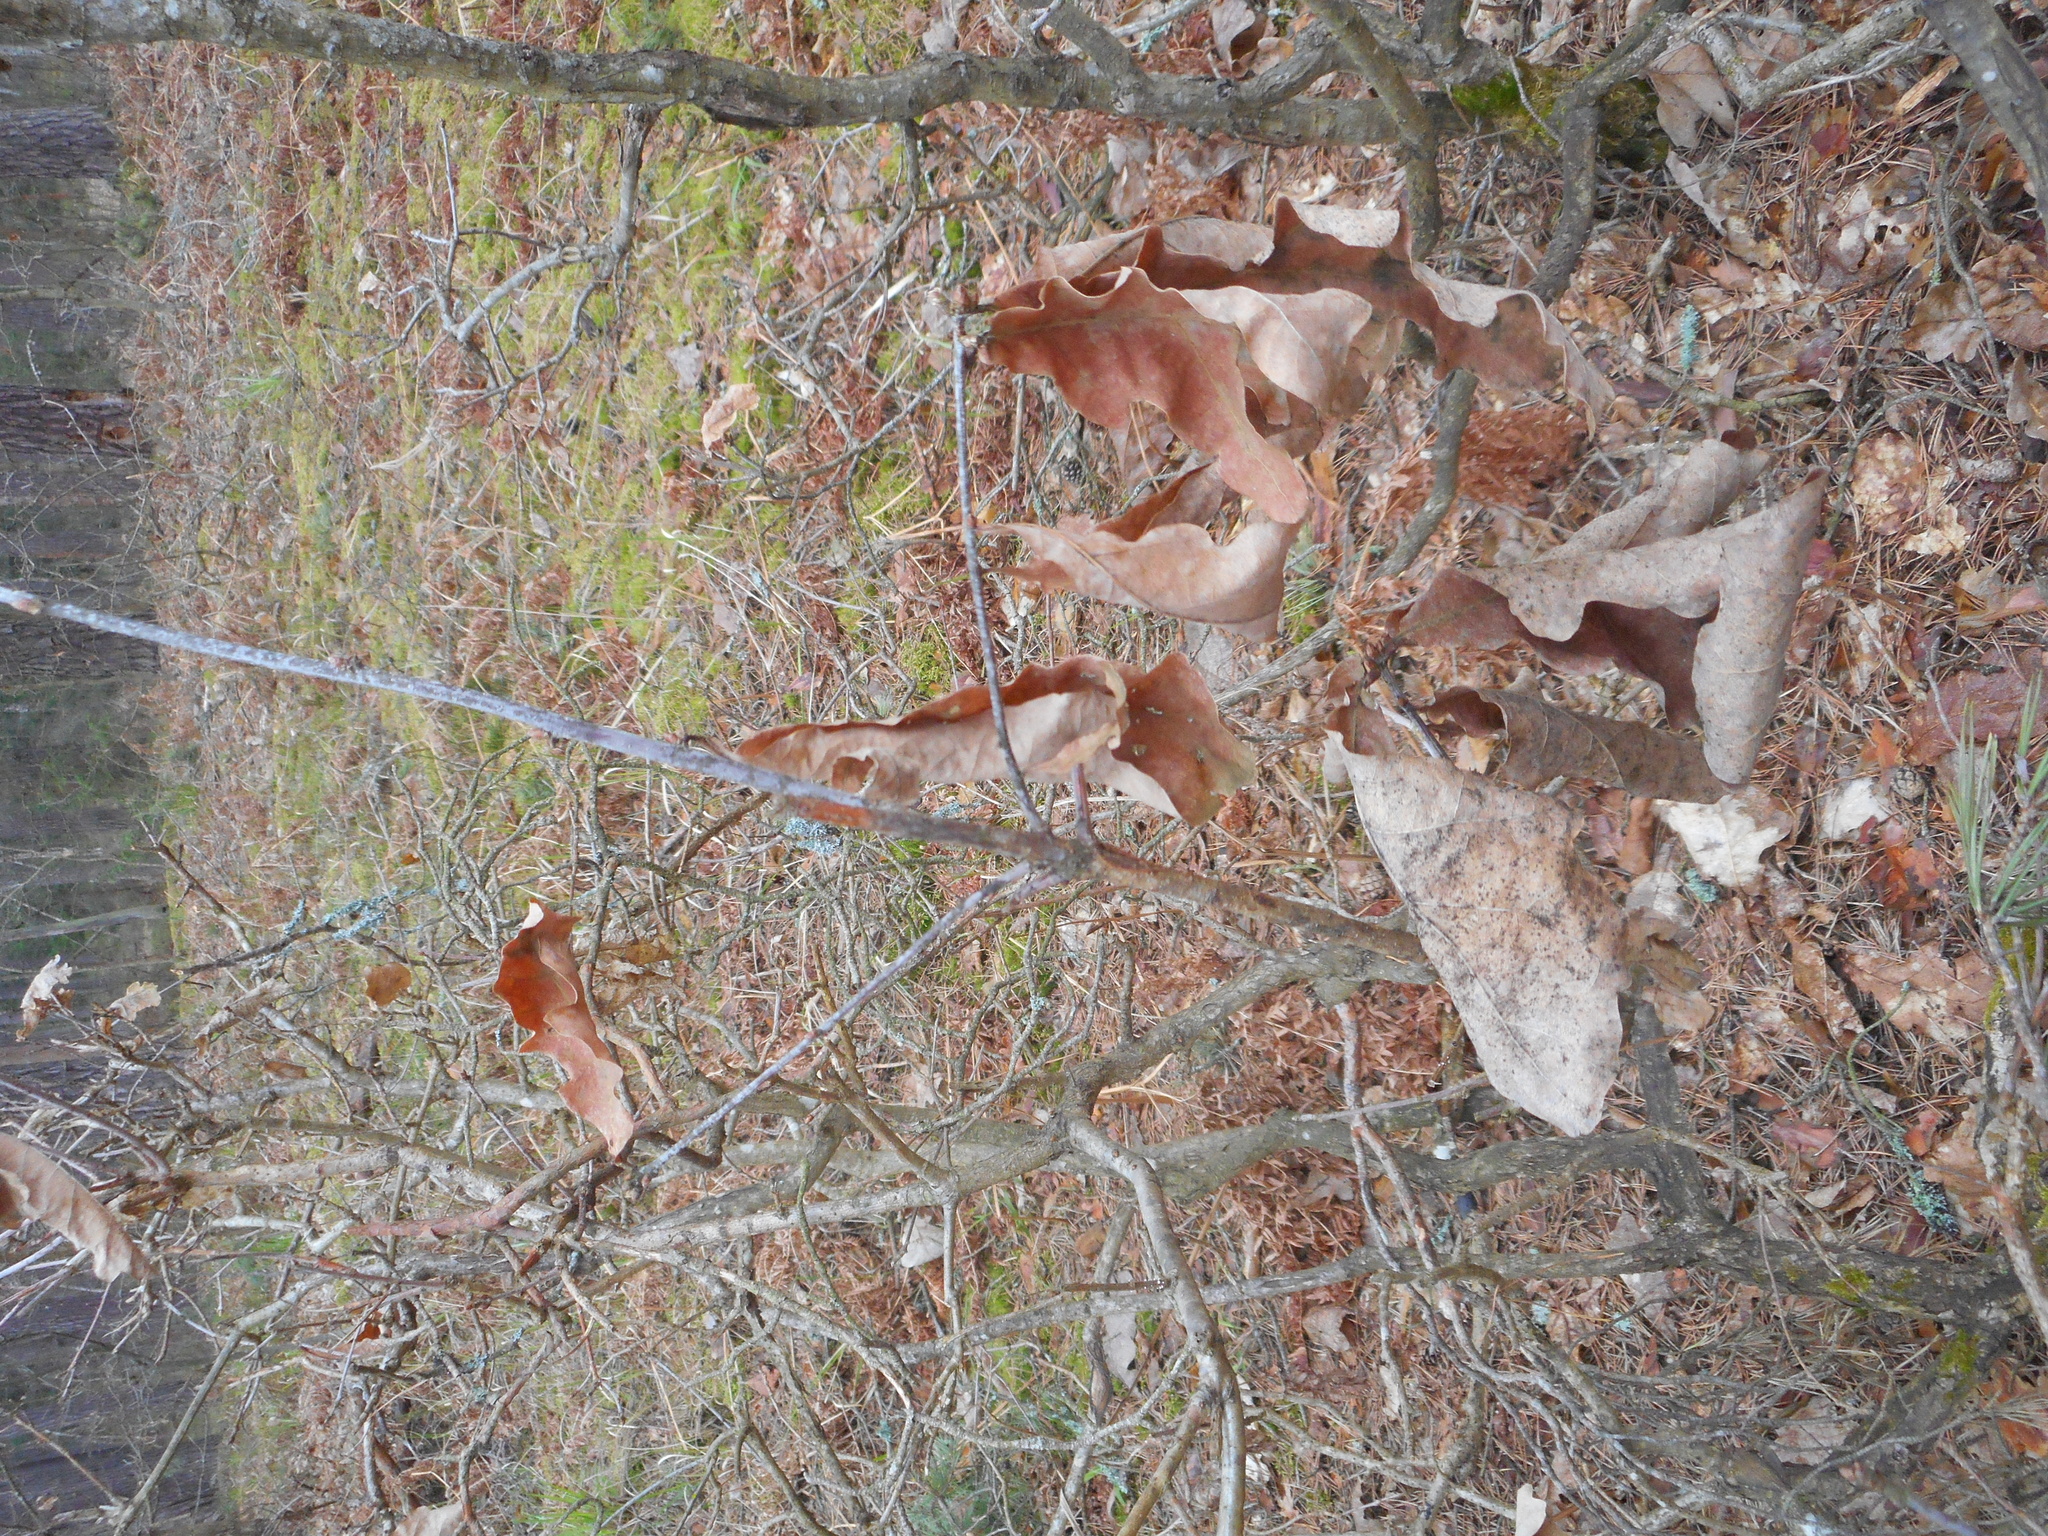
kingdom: Plantae
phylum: Tracheophyta
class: Magnoliopsida
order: Fagales
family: Fagaceae
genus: Quercus
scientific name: Quercus robur
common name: Pedunculate oak
